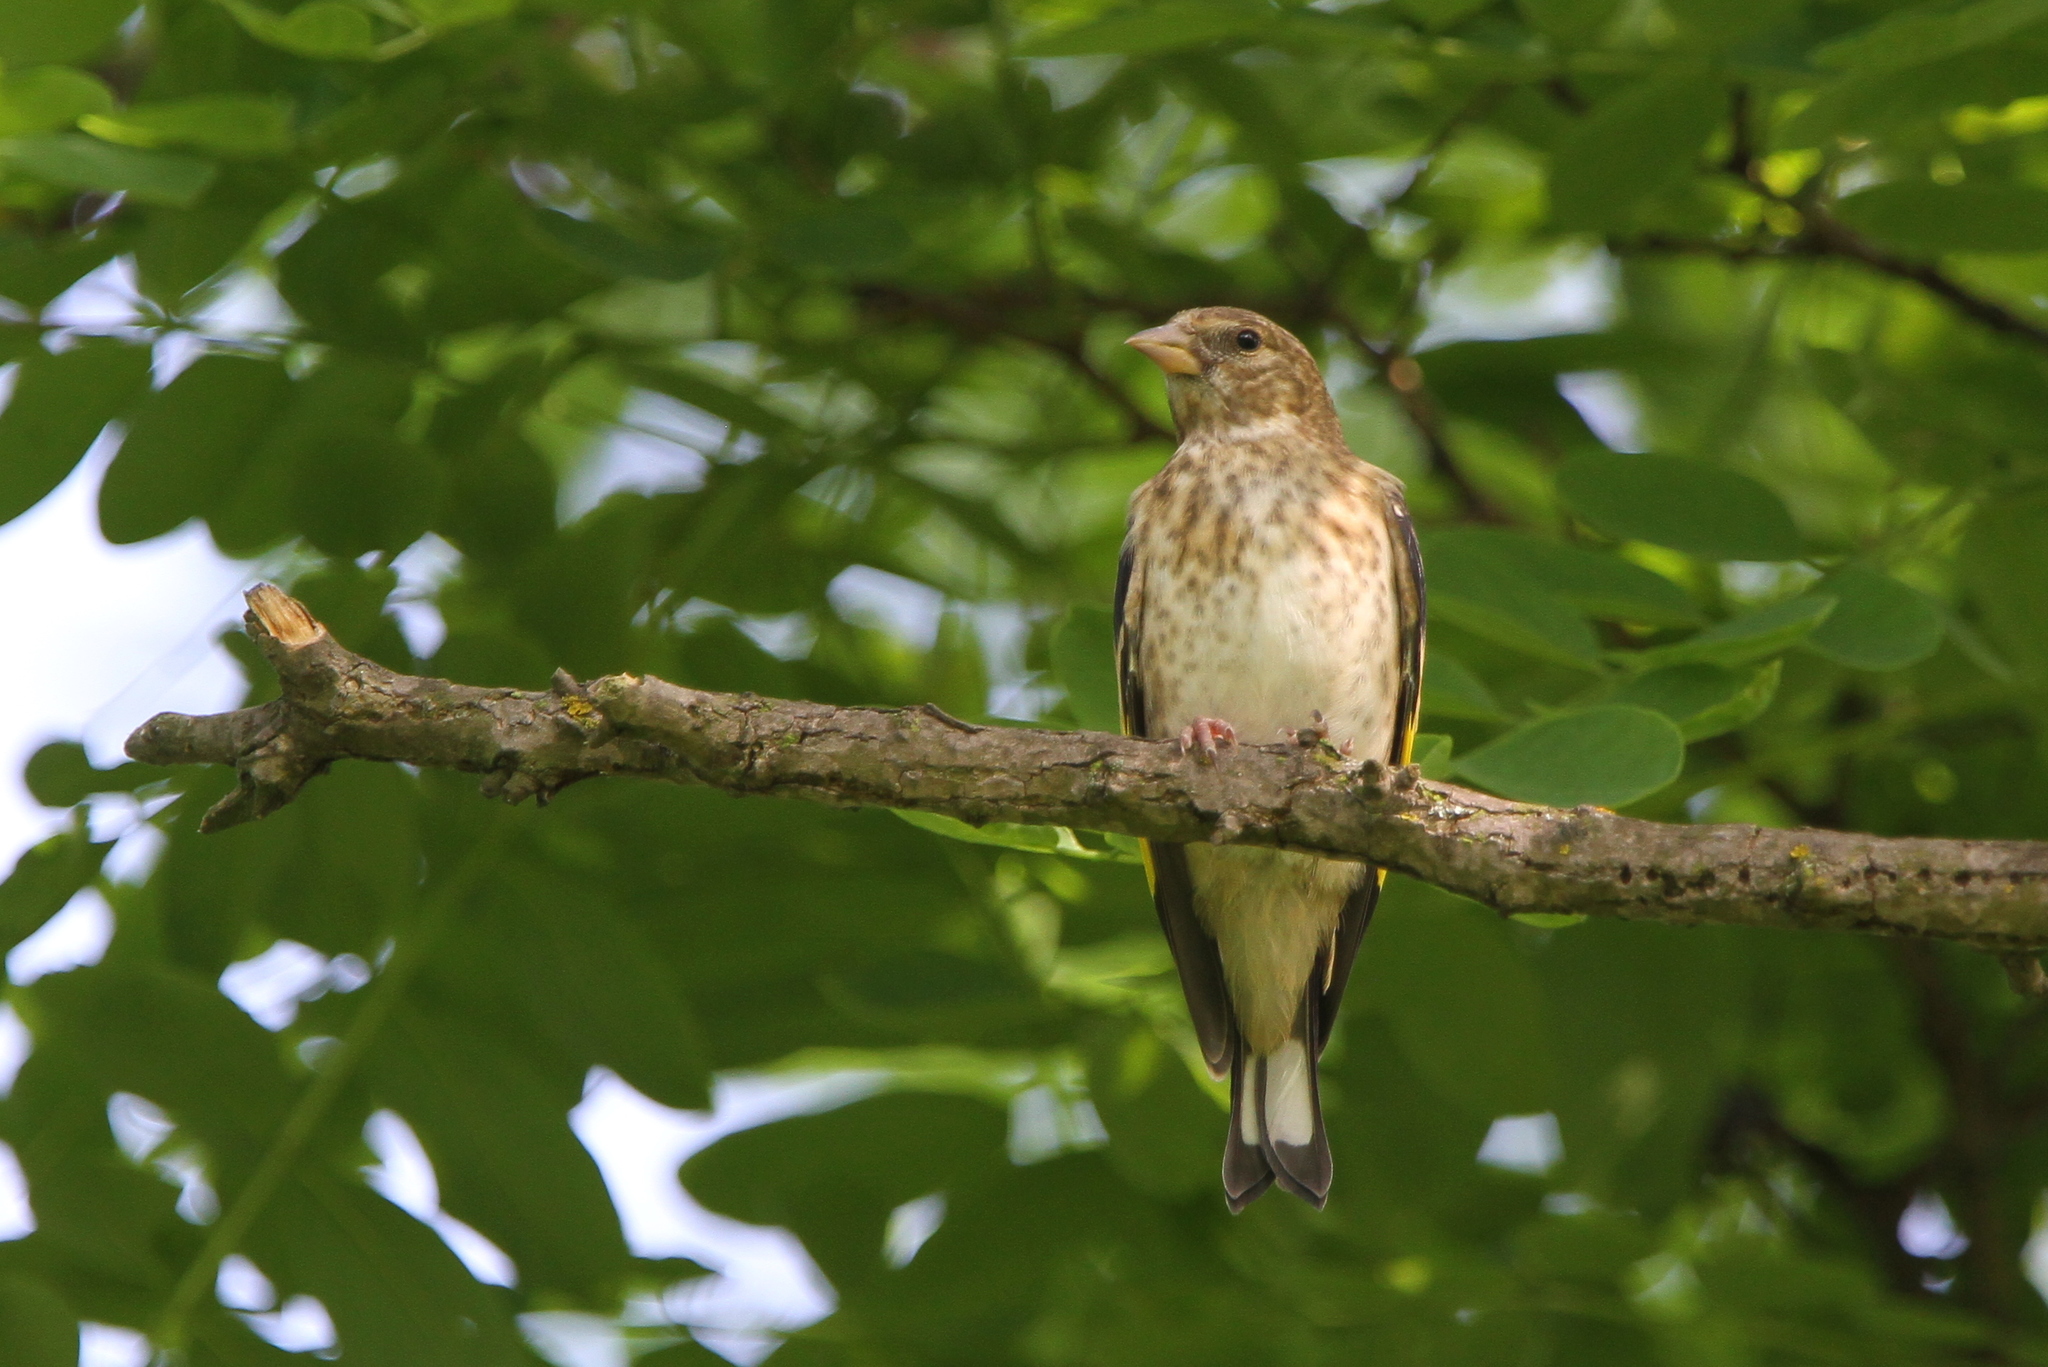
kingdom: Animalia
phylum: Chordata
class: Aves
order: Passeriformes
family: Fringillidae
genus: Carduelis
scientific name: Carduelis carduelis
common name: European goldfinch
